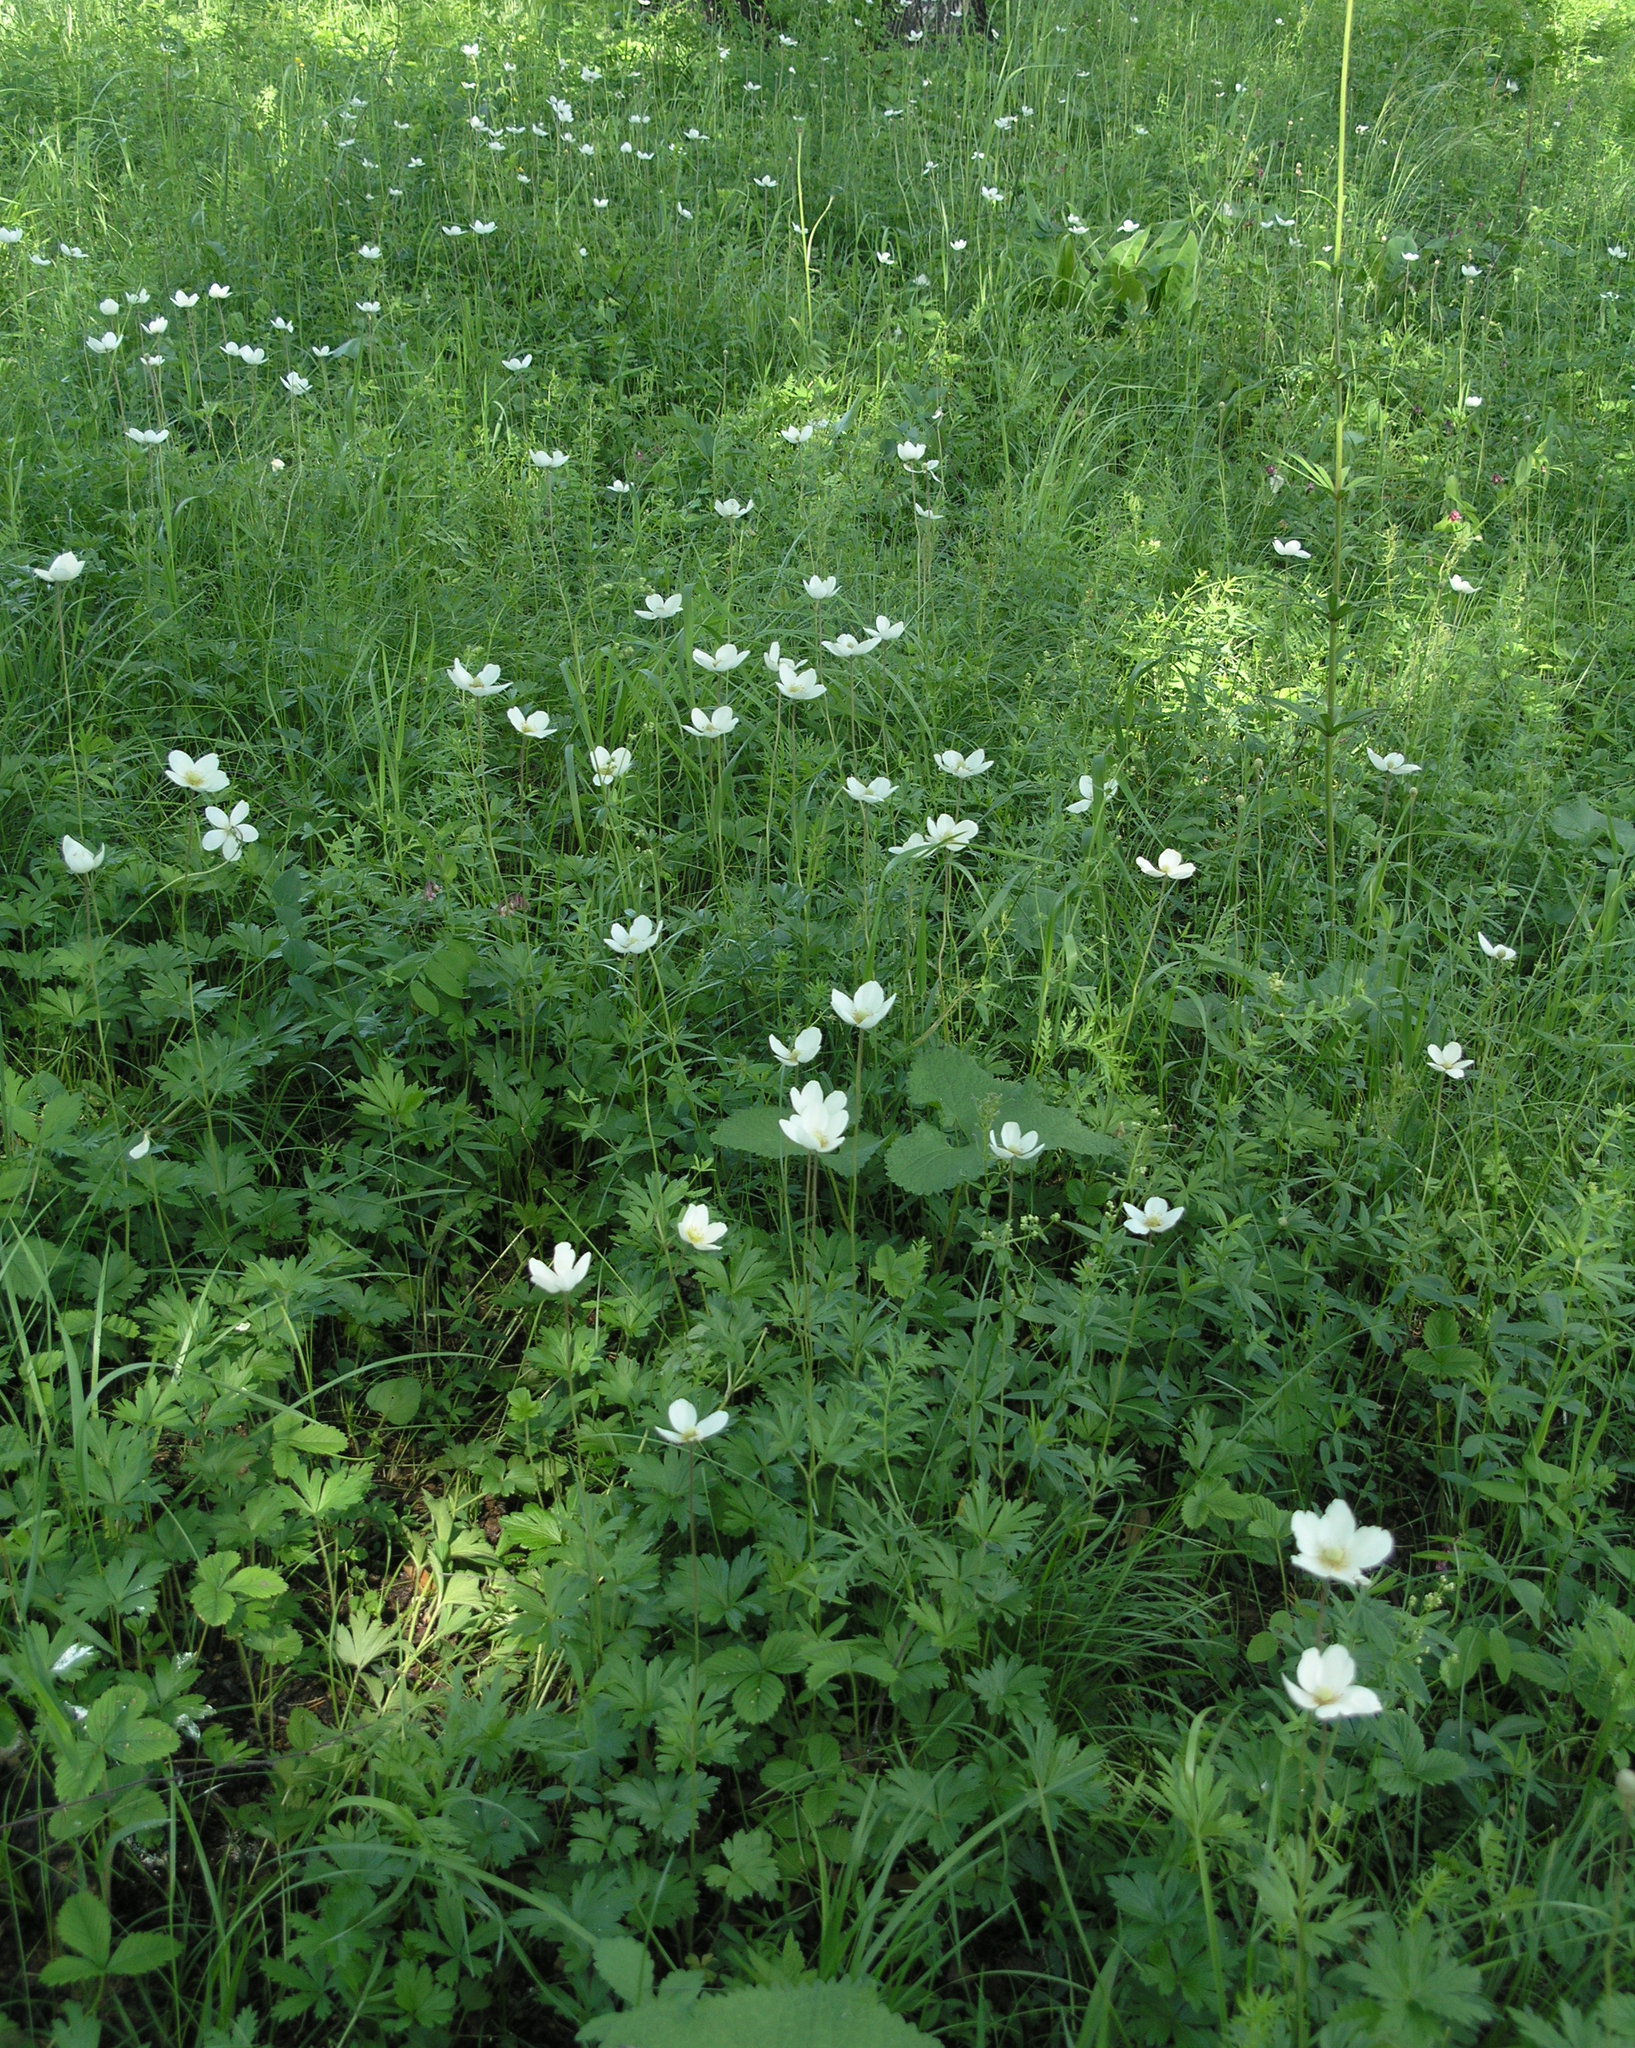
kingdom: Plantae
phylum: Tracheophyta
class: Magnoliopsida
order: Ranunculales
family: Ranunculaceae
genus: Anemone
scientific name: Anemone sylvestris
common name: Snowdrop anemone
